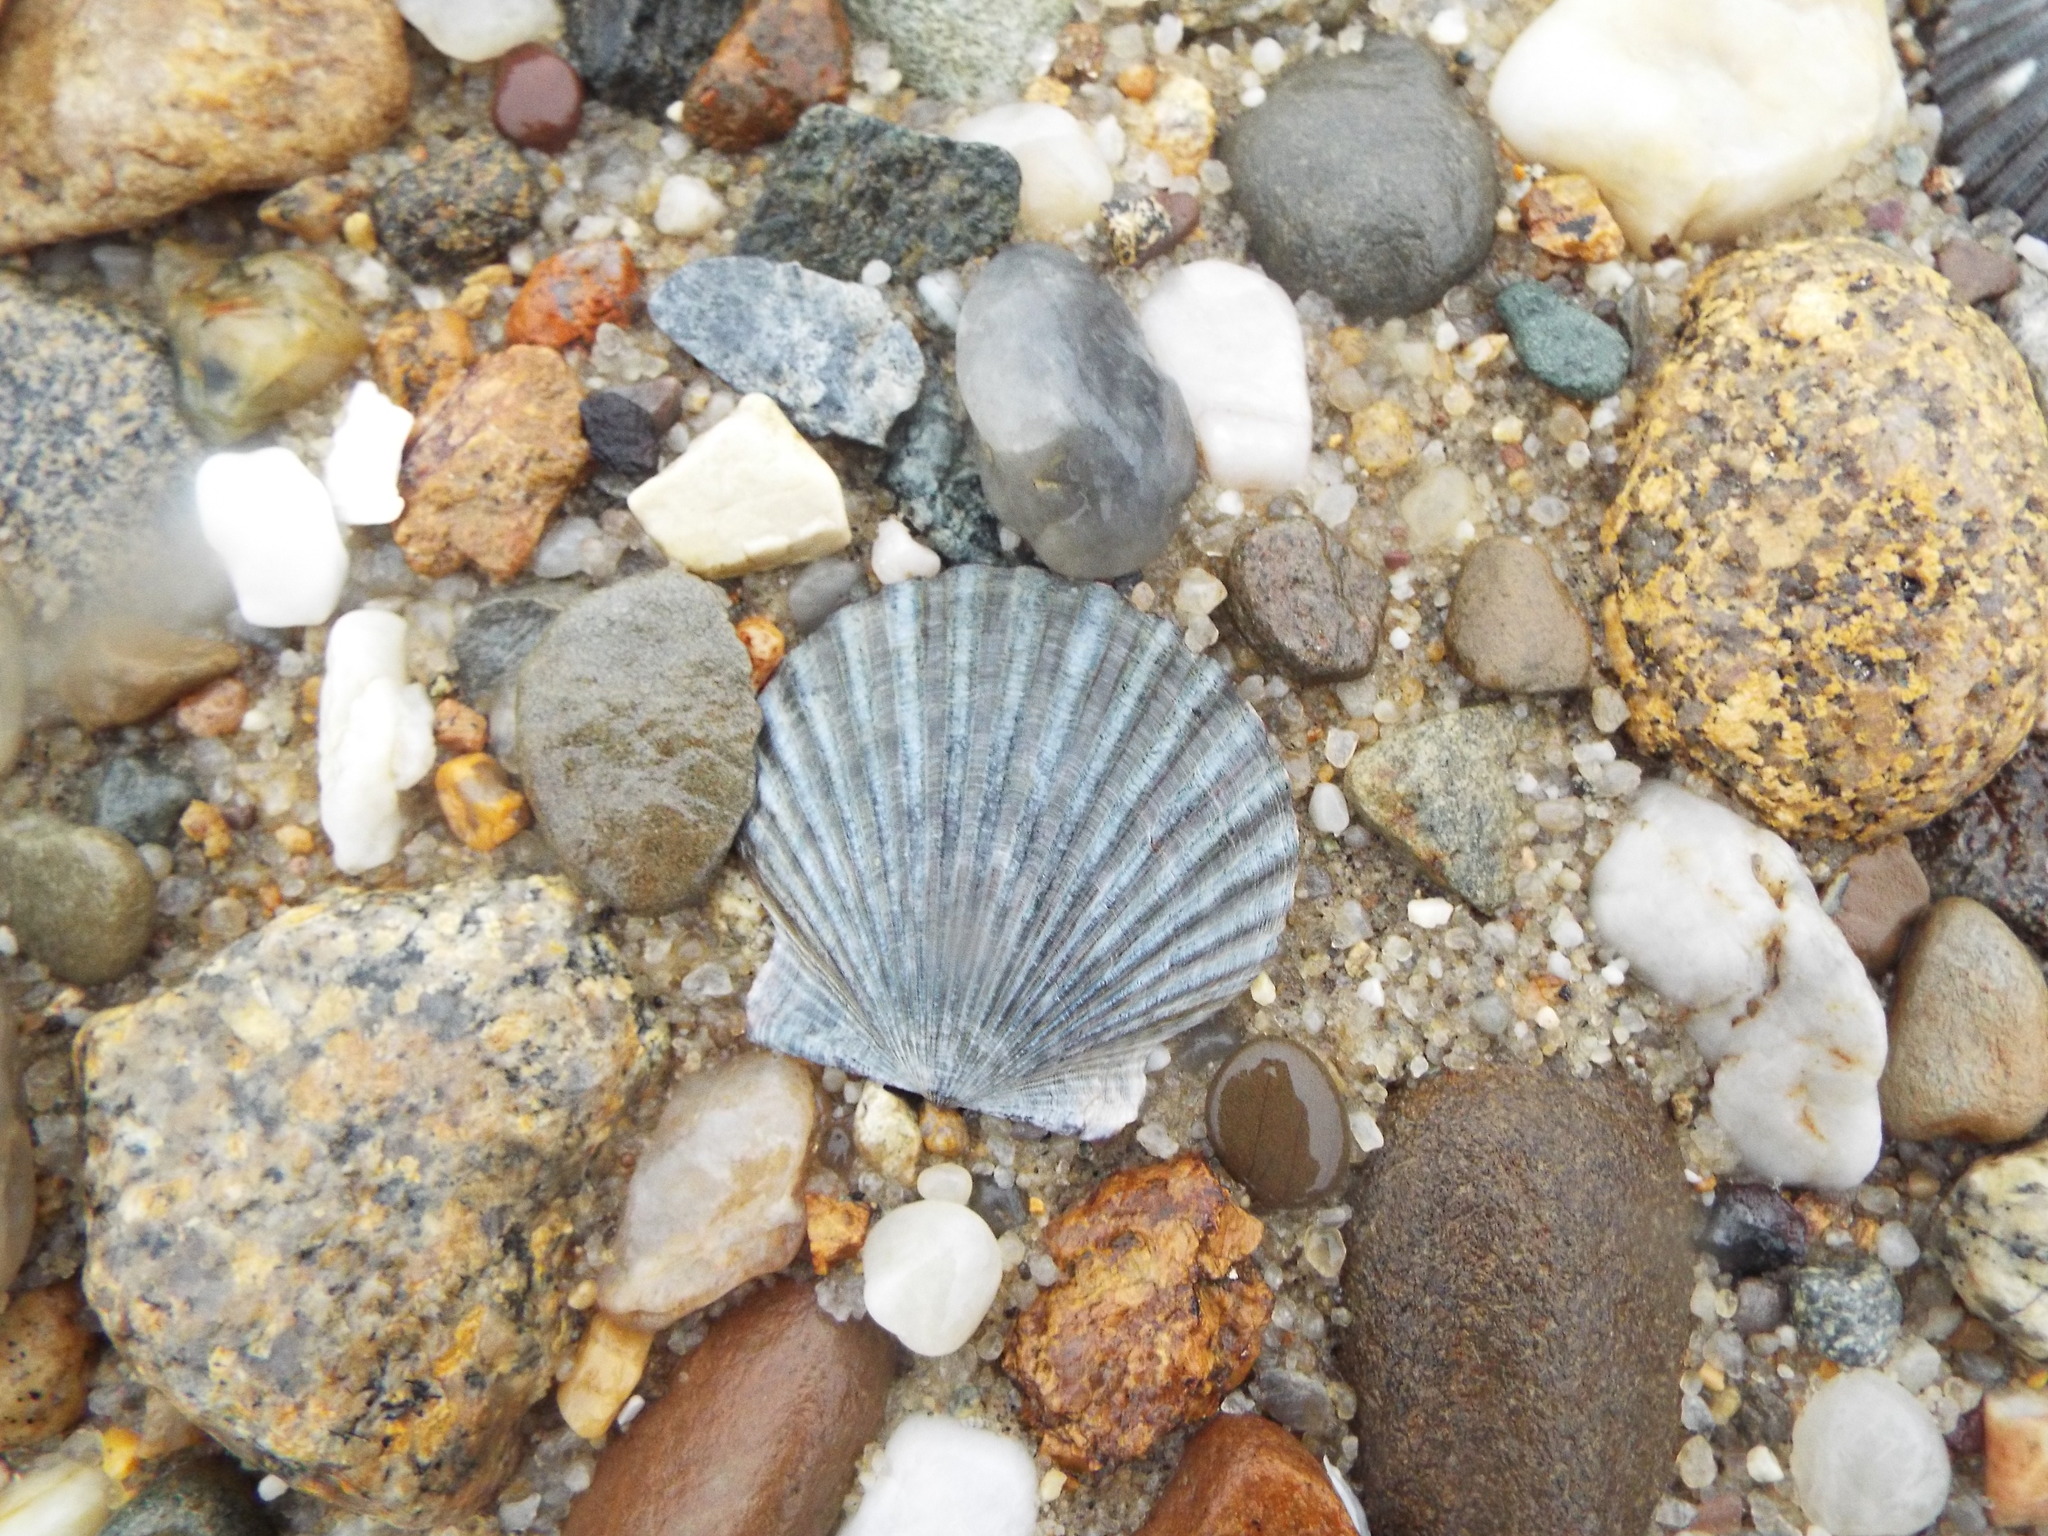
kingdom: Animalia
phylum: Mollusca
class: Bivalvia
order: Pectinida
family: Pectinidae
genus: Argopecten
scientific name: Argopecten irradians
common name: Atlantic bay scallop
